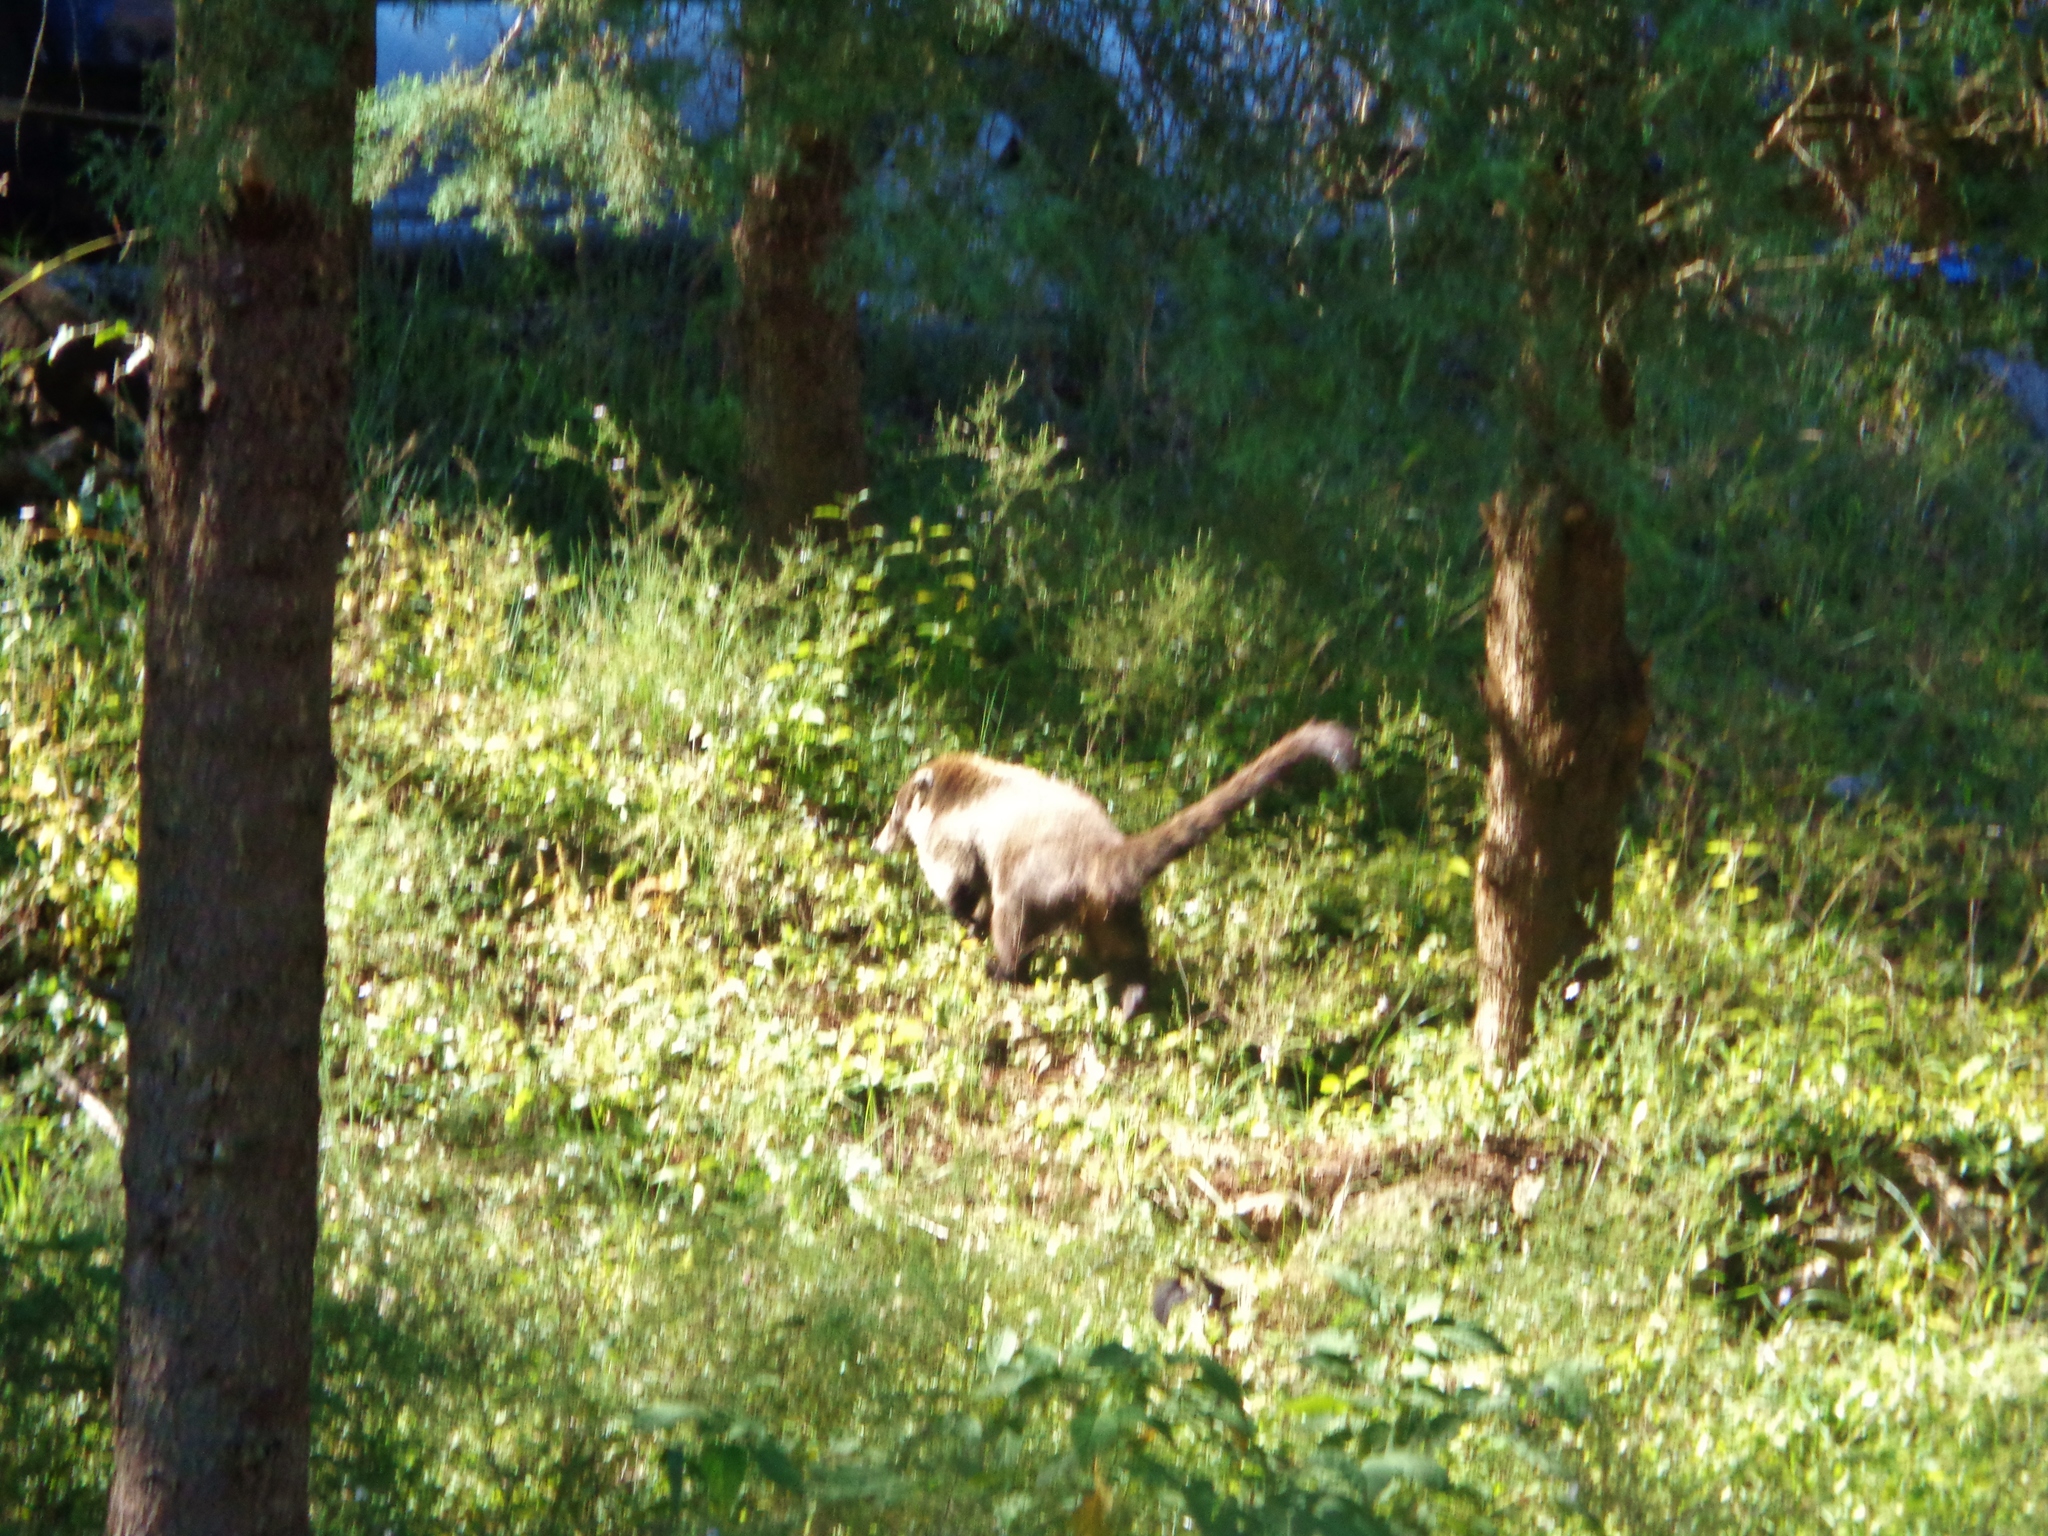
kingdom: Animalia
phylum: Chordata
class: Mammalia
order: Carnivora
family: Procyonidae
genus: Nasua
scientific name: Nasua narica
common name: White-nosed coati
